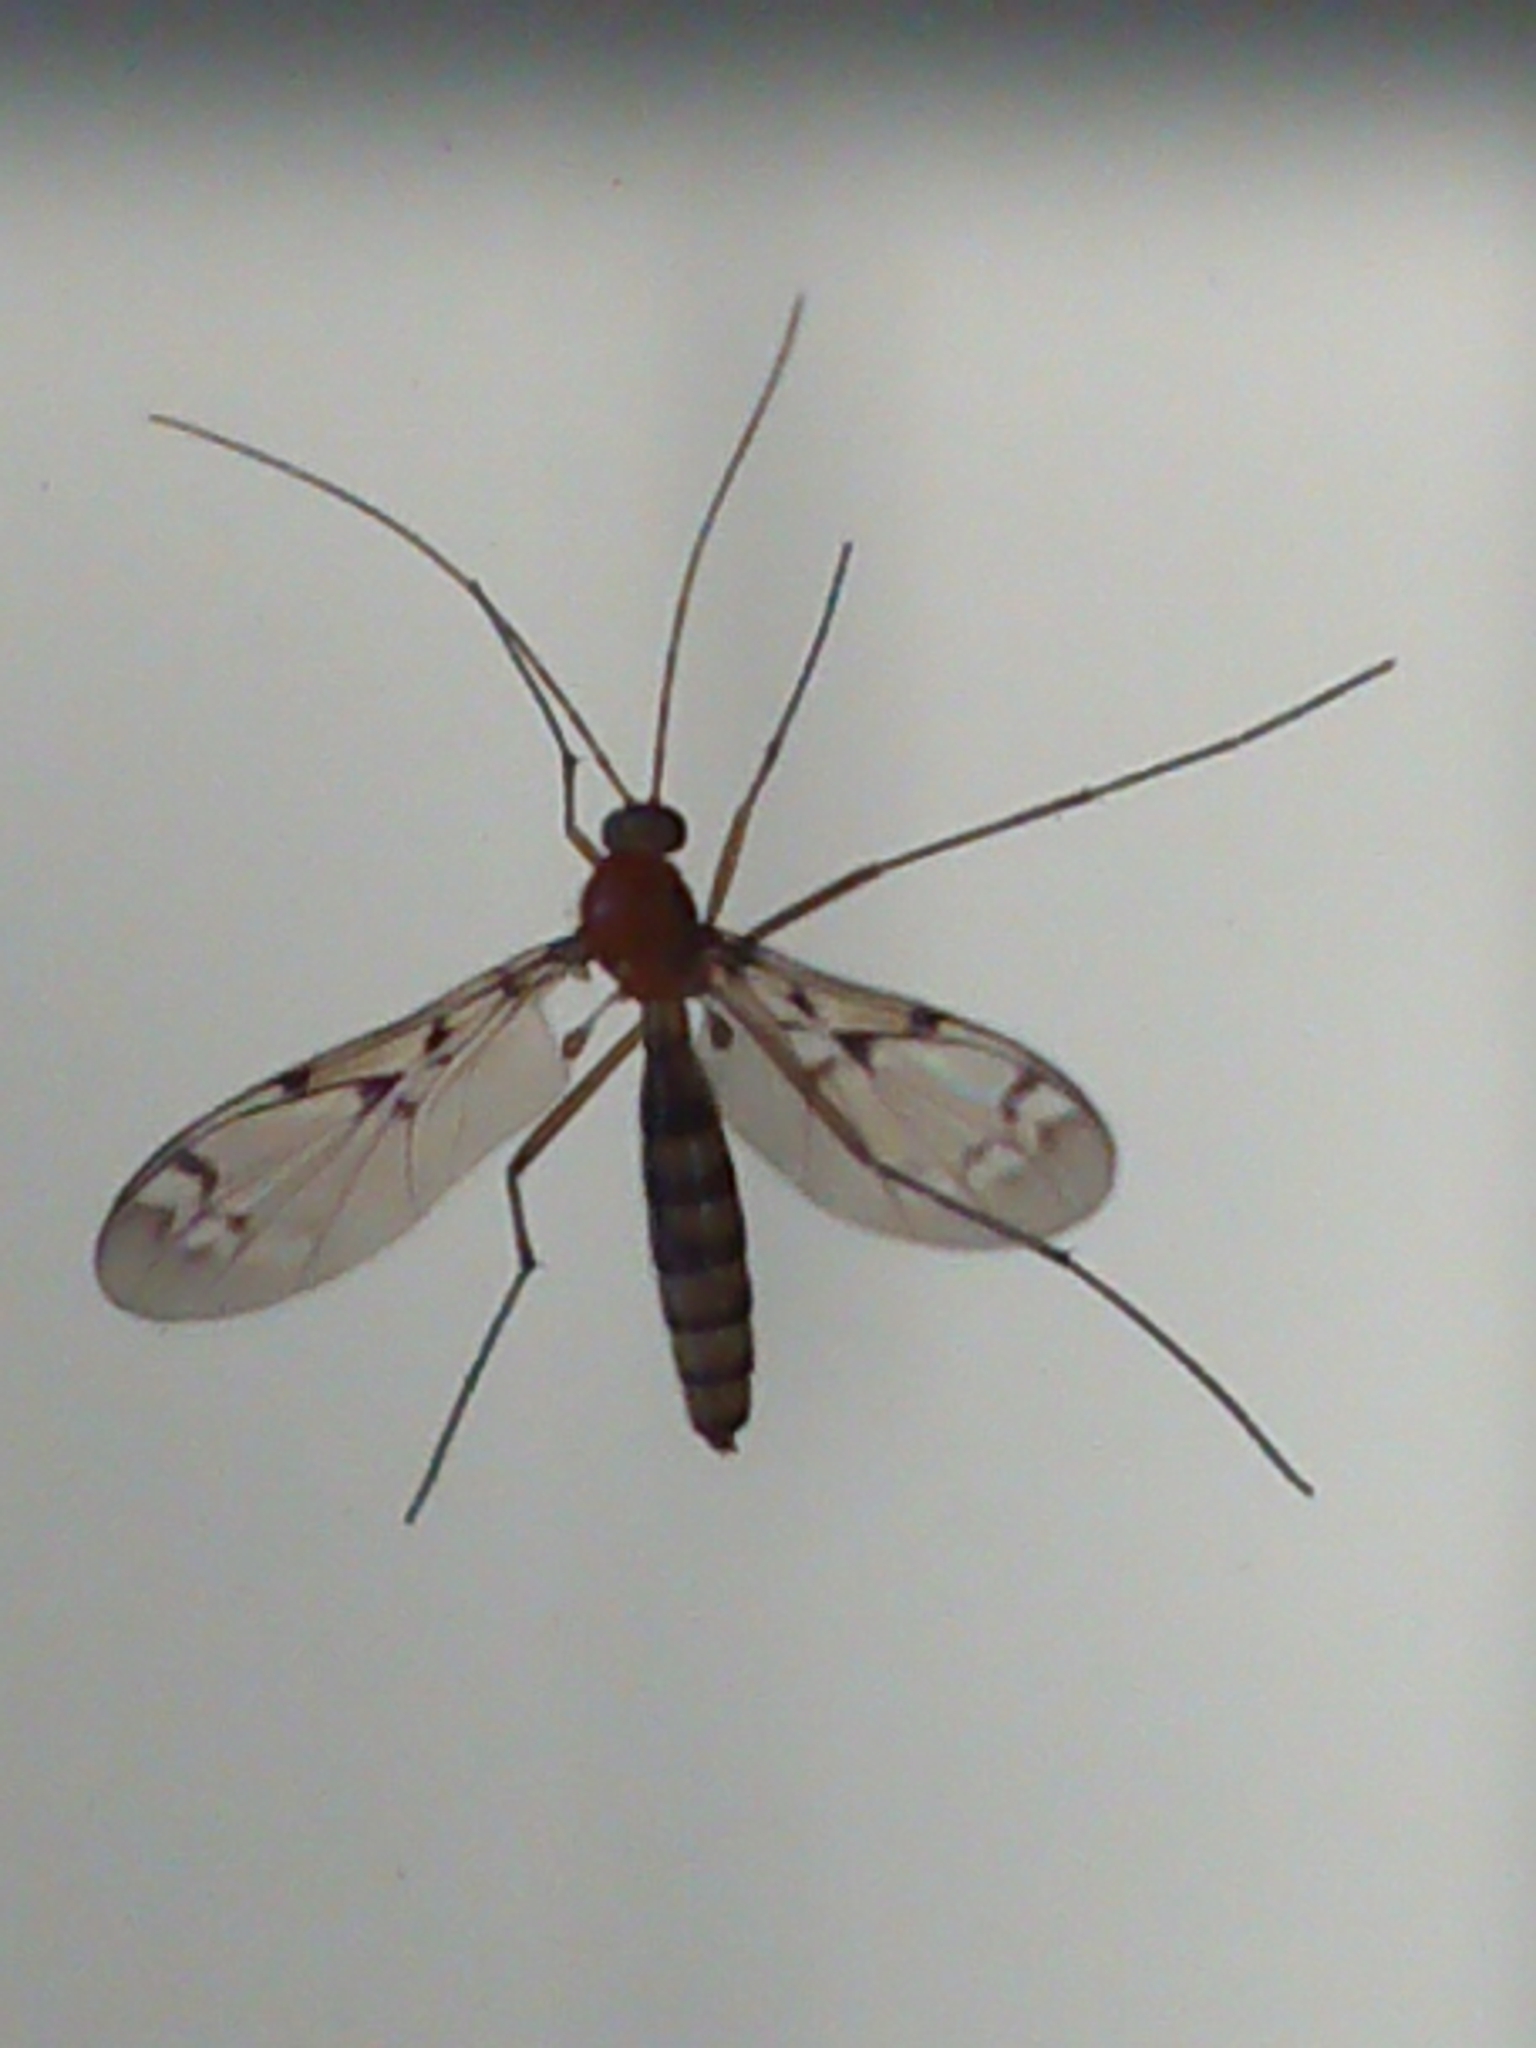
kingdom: Animalia
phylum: Arthropoda
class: Insecta
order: Diptera
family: Keroplatidae
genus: Chiasmoneura
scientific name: Chiasmoneura milligani
